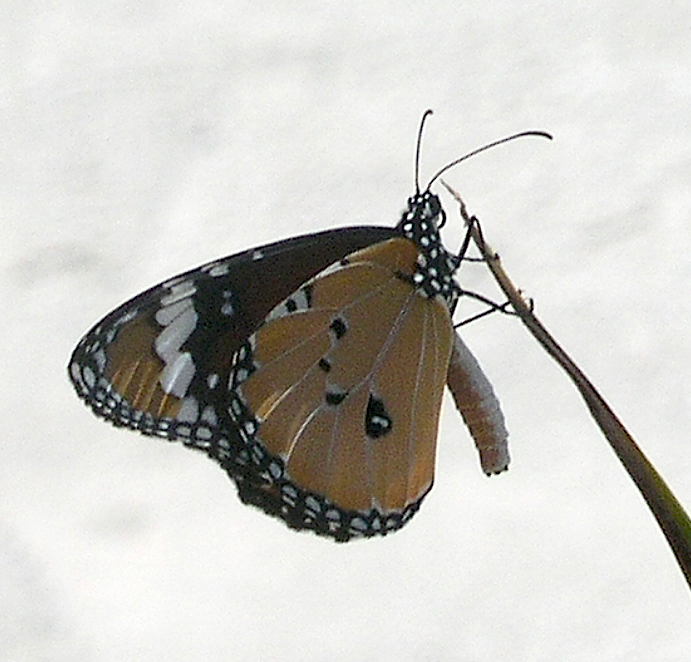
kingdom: Animalia
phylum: Arthropoda
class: Insecta
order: Lepidoptera
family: Nymphalidae
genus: Danaus
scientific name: Danaus chrysippus
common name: Plain tiger
